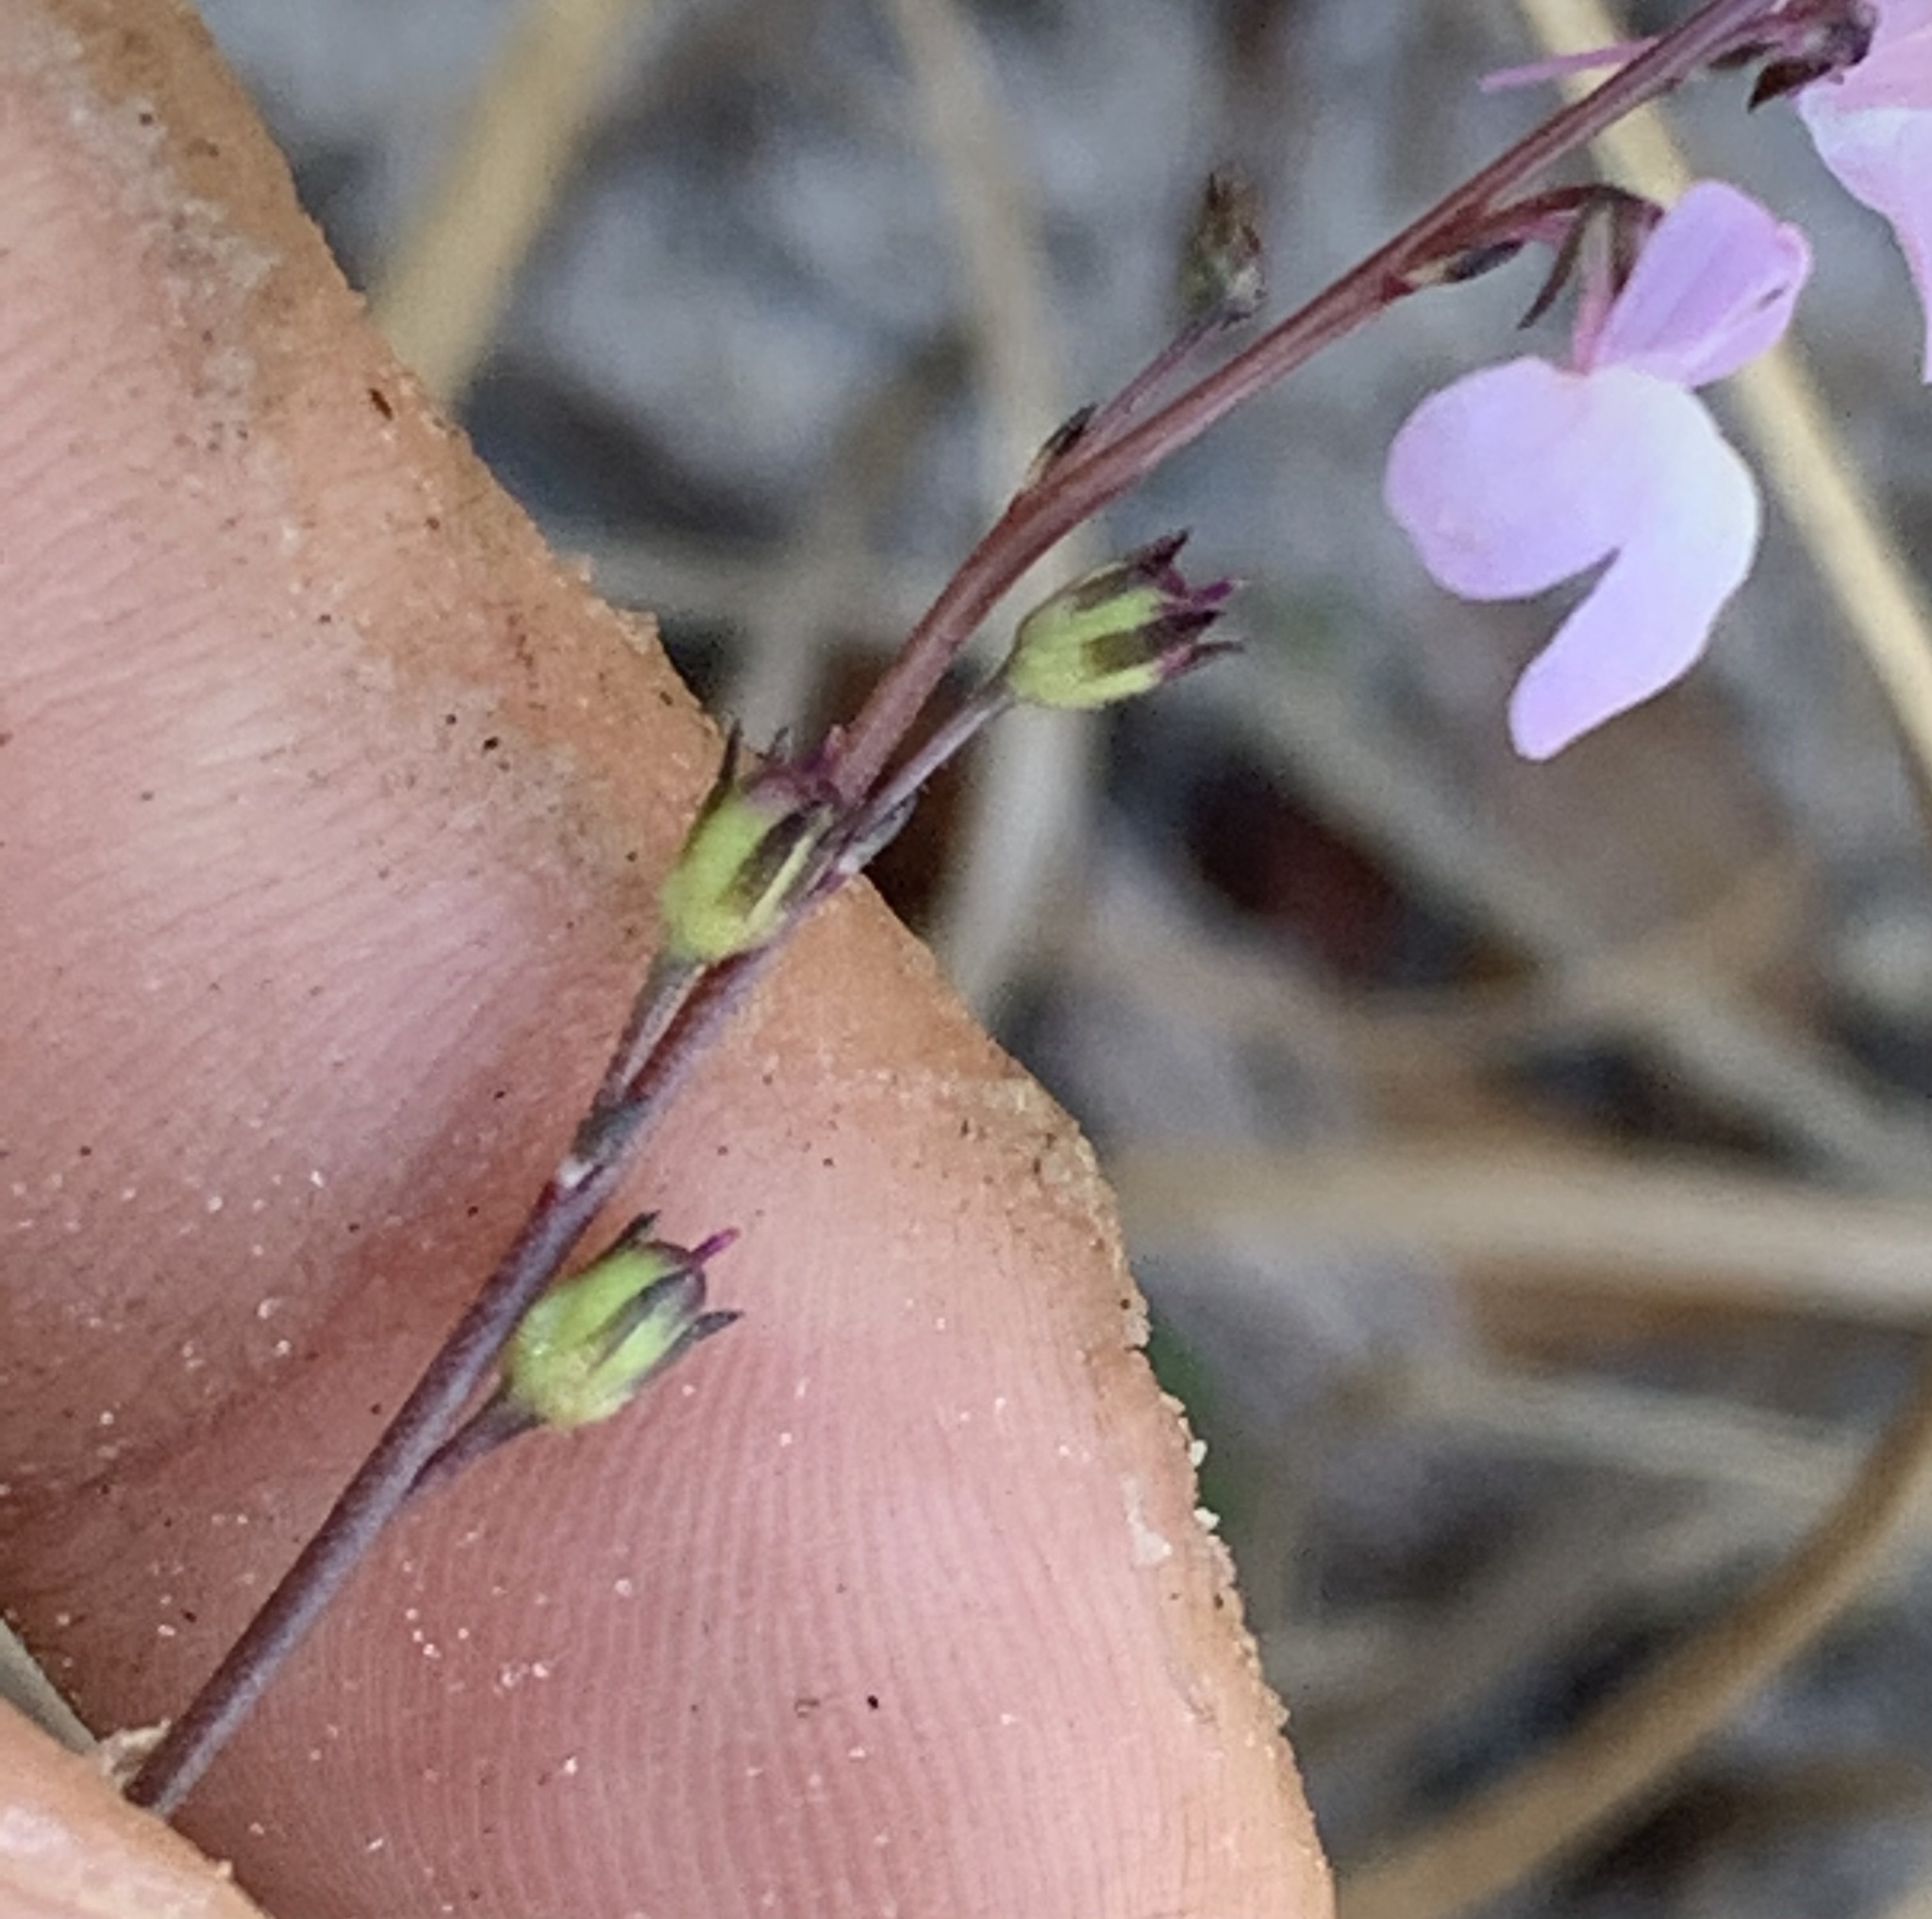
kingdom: Plantae
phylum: Tracheophyta
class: Magnoliopsida
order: Lamiales
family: Plantaginaceae
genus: Nuttallanthus
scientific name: Nuttallanthus canadensis
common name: Blue toadflax
